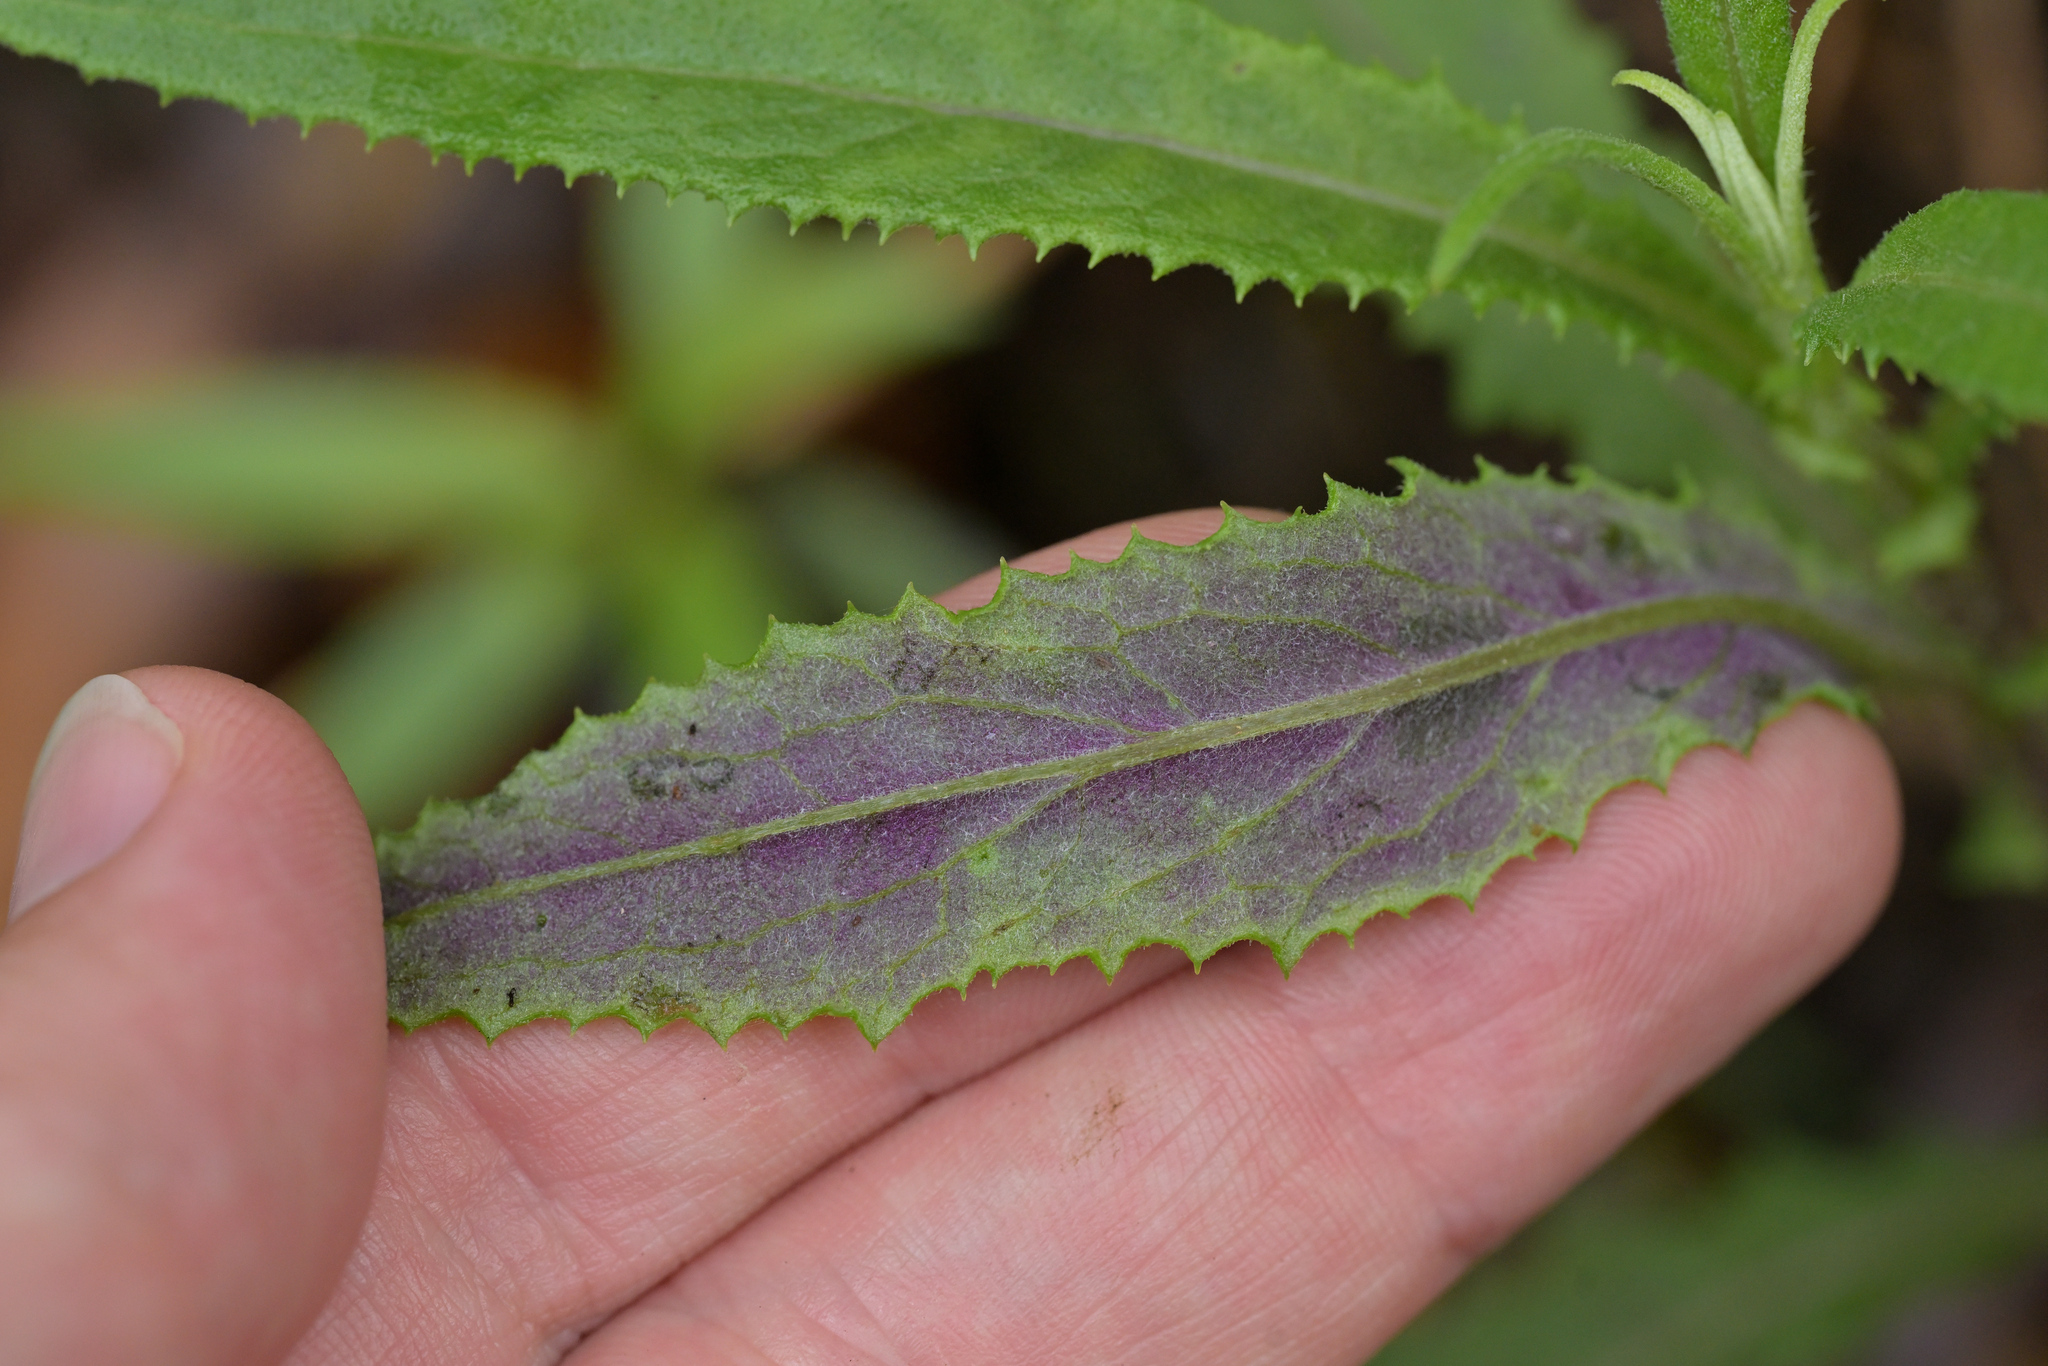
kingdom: Plantae
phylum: Tracheophyta
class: Magnoliopsida
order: Asterales
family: Asteraceae
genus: Senecio
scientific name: Senecio minimus
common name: Toothed fireweed
